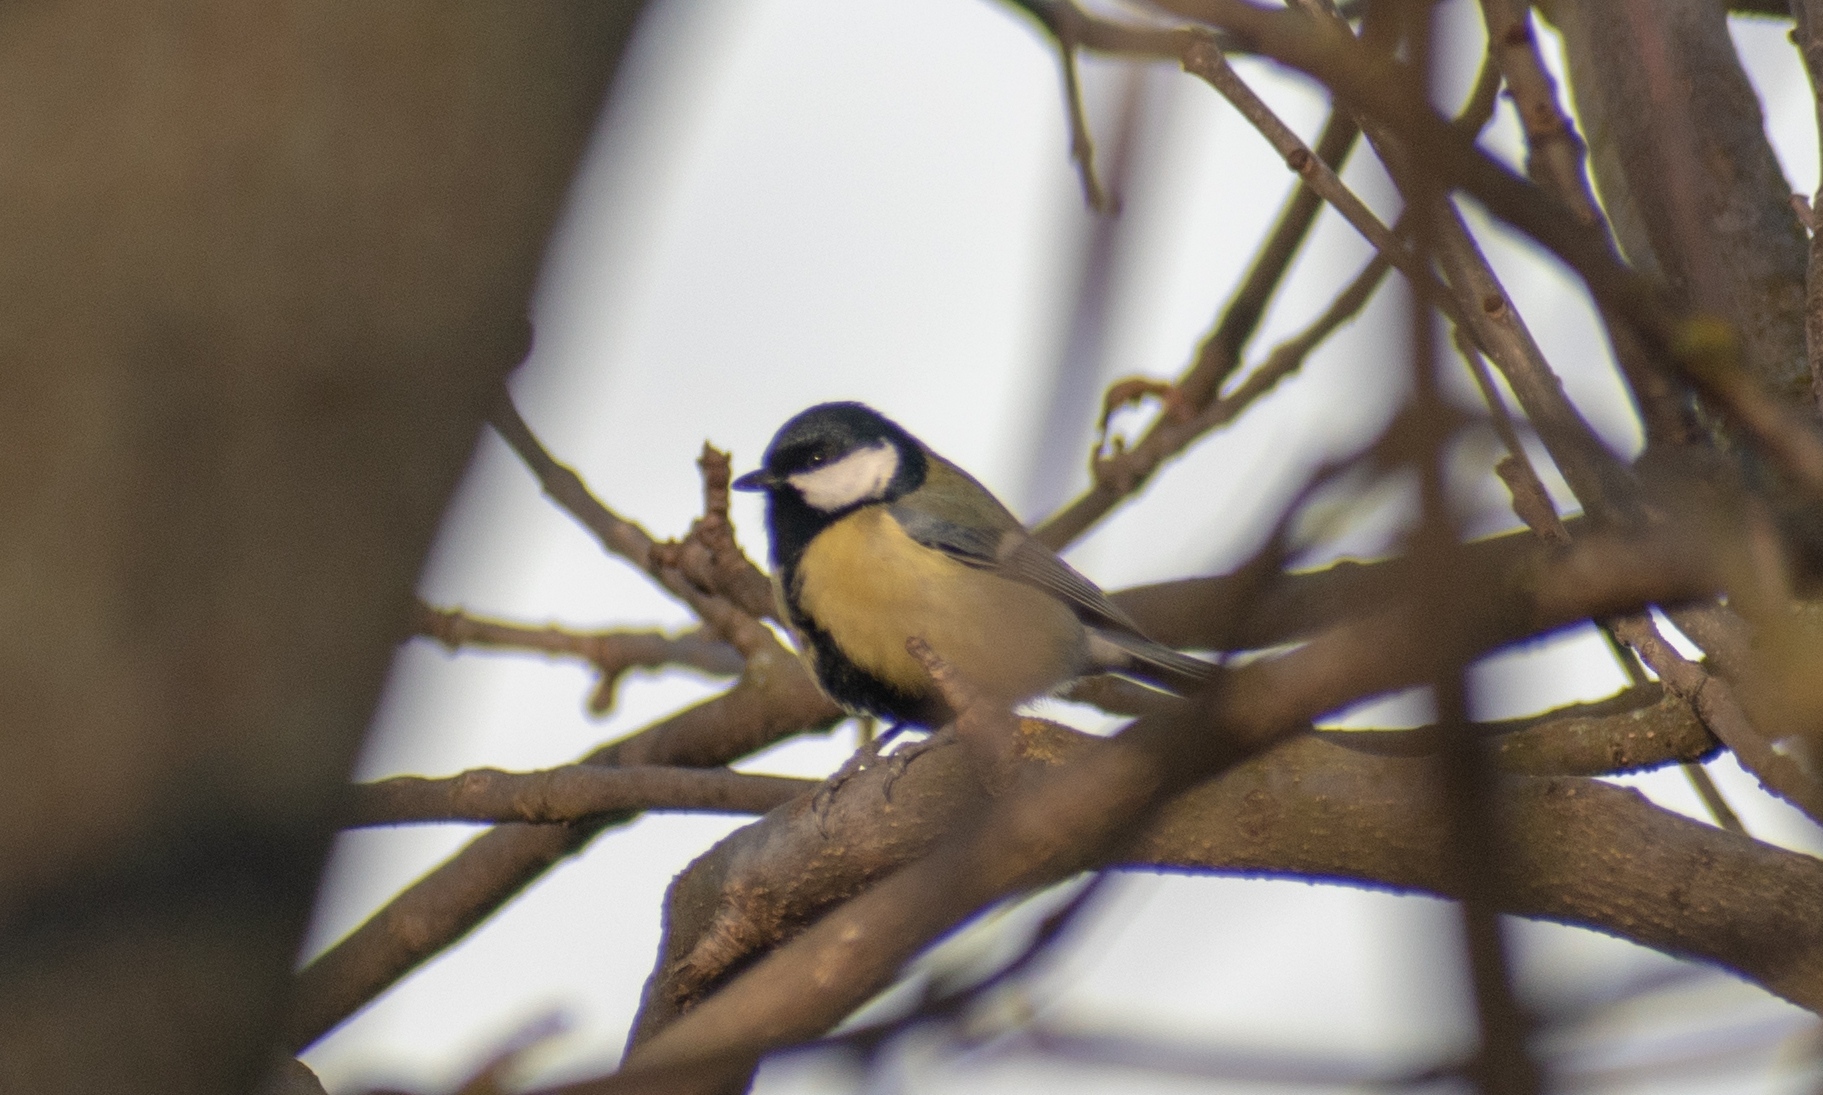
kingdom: Animalia
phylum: Chordata
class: Aves
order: Passeriformes
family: Paridae
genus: Parus
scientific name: Parus major
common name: Great tit
